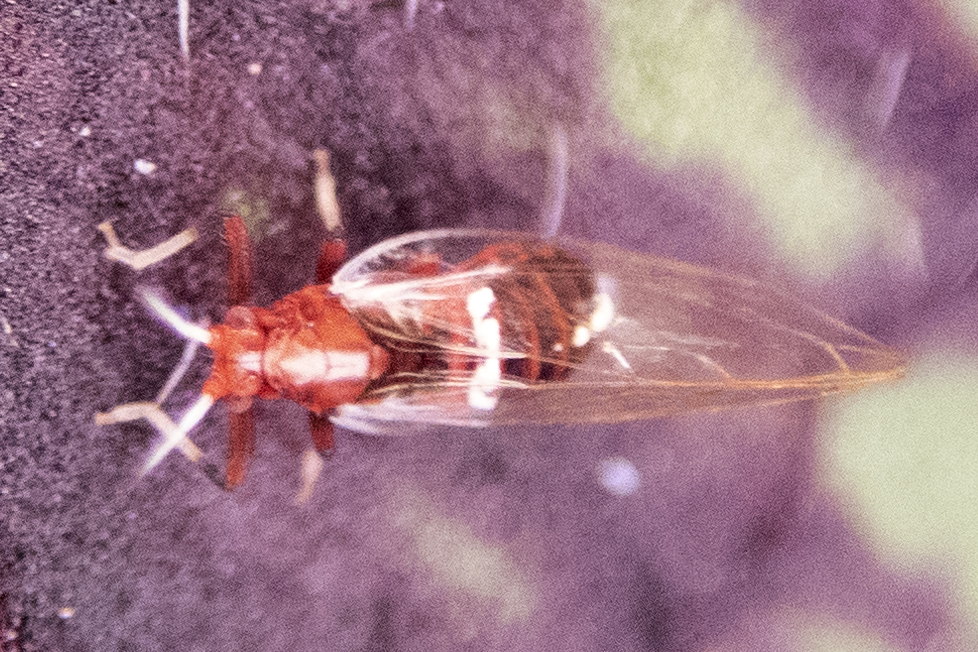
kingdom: Animalia
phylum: Arthropoda
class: Insecta
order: Hemiptera
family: Triozidae
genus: Bactericera
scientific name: Bactericera antennata
